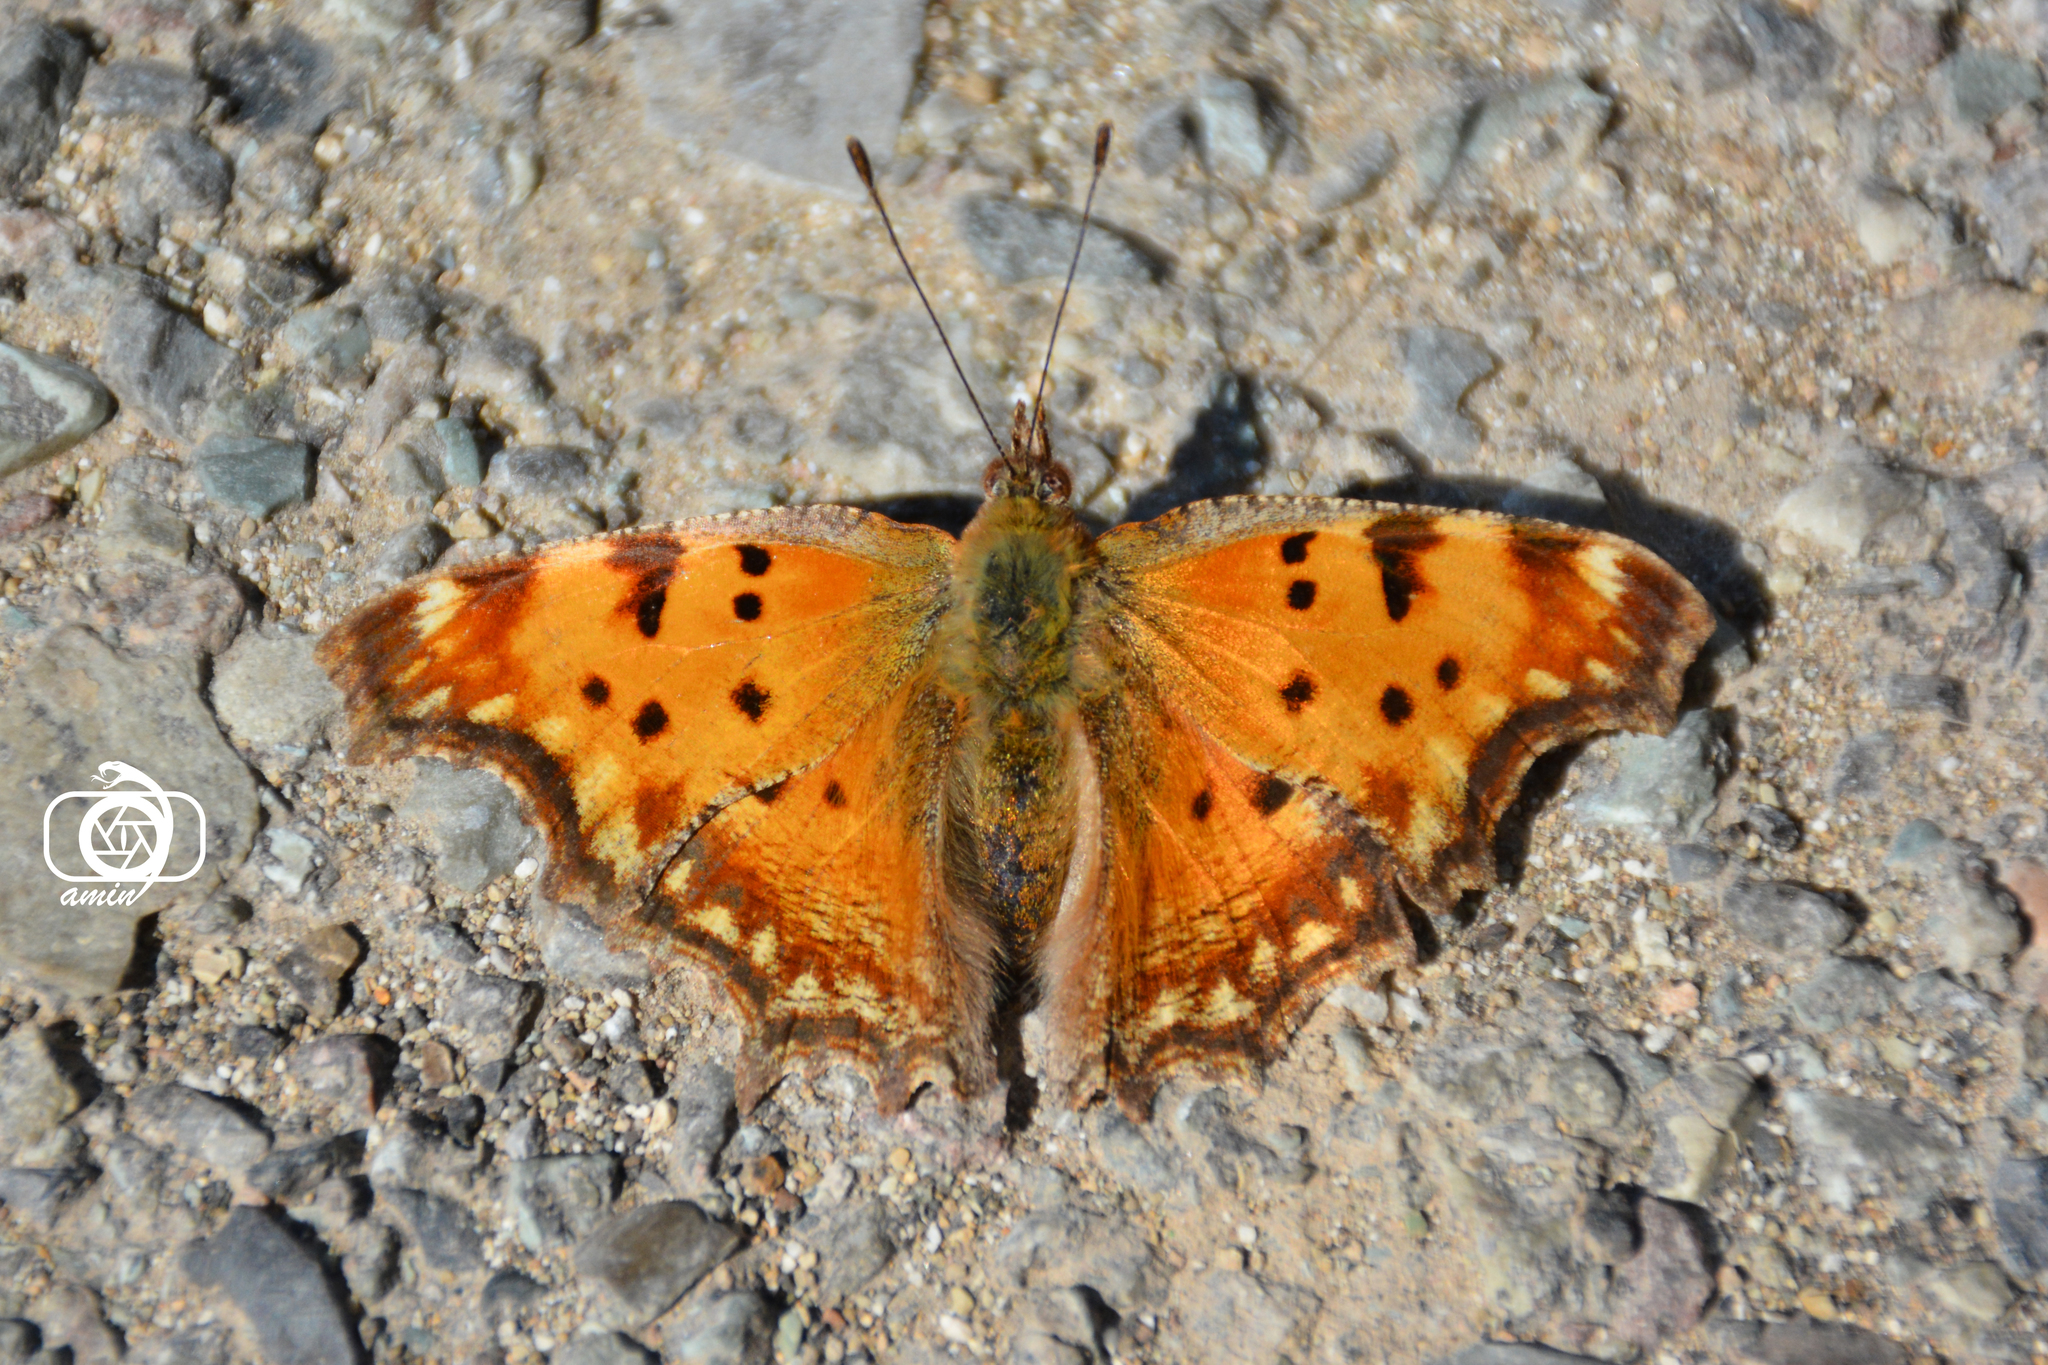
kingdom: Animalia
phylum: Arthropoda
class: Insecta
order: Lepidoptera
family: Nymphalidae
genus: Polygonia
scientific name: Polygonia egea
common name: Southern comma
